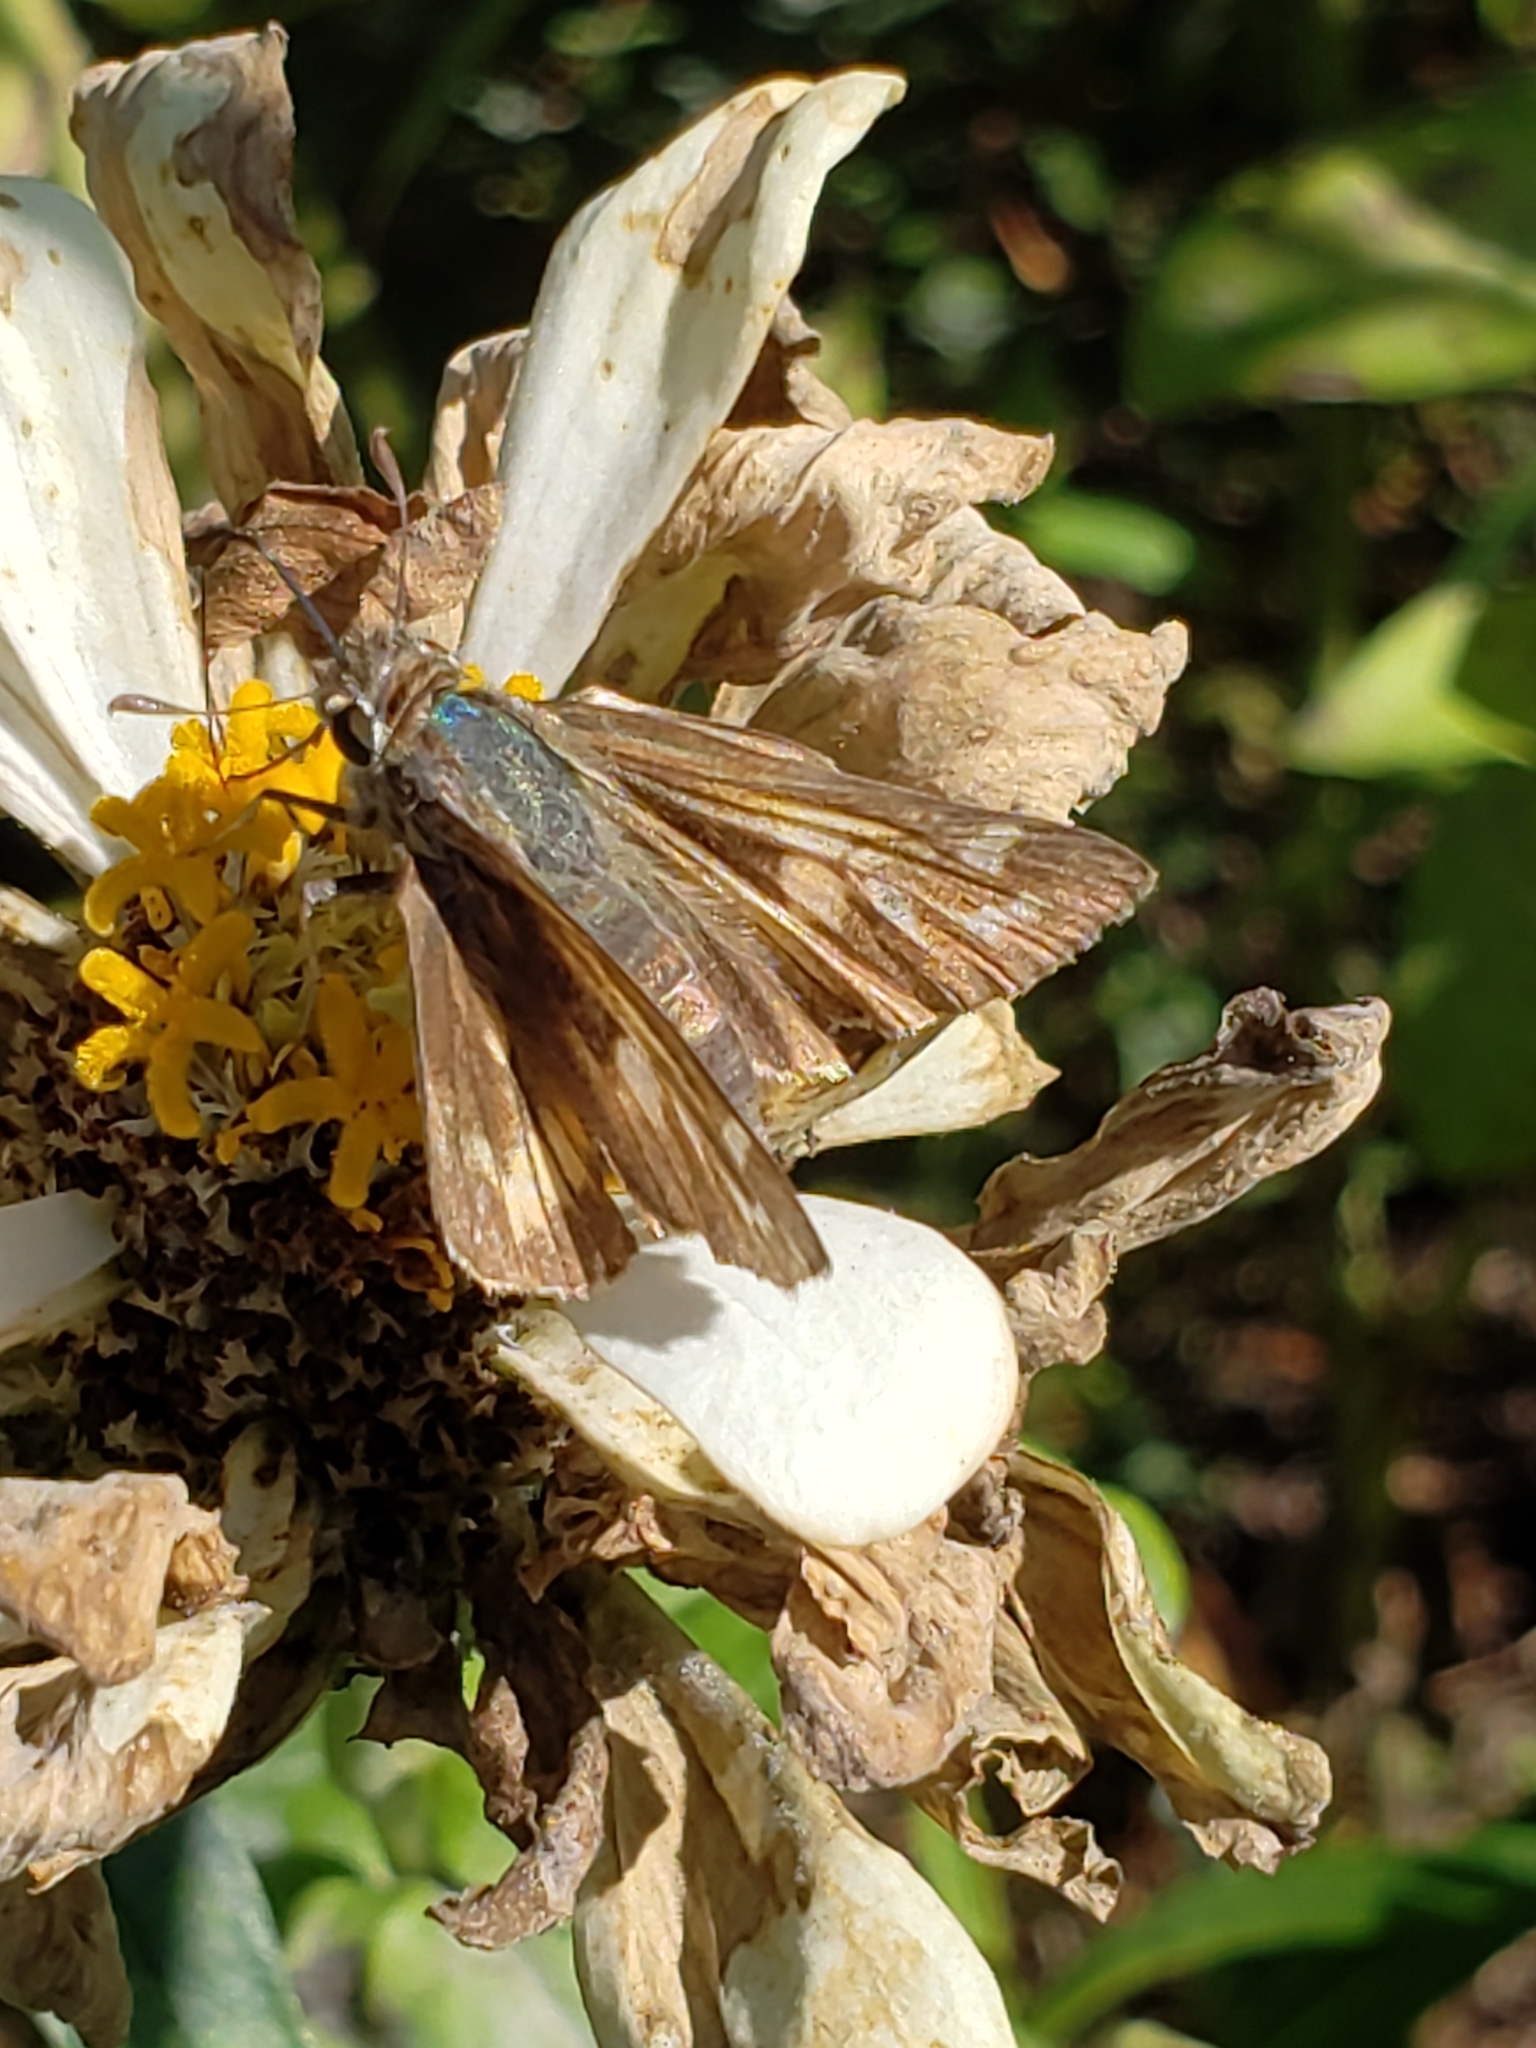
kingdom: Animalia
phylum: Arthropoda
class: Insecta
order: Lepidoptera
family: Hesperiidae
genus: Atalopedes
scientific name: Atalopedes
